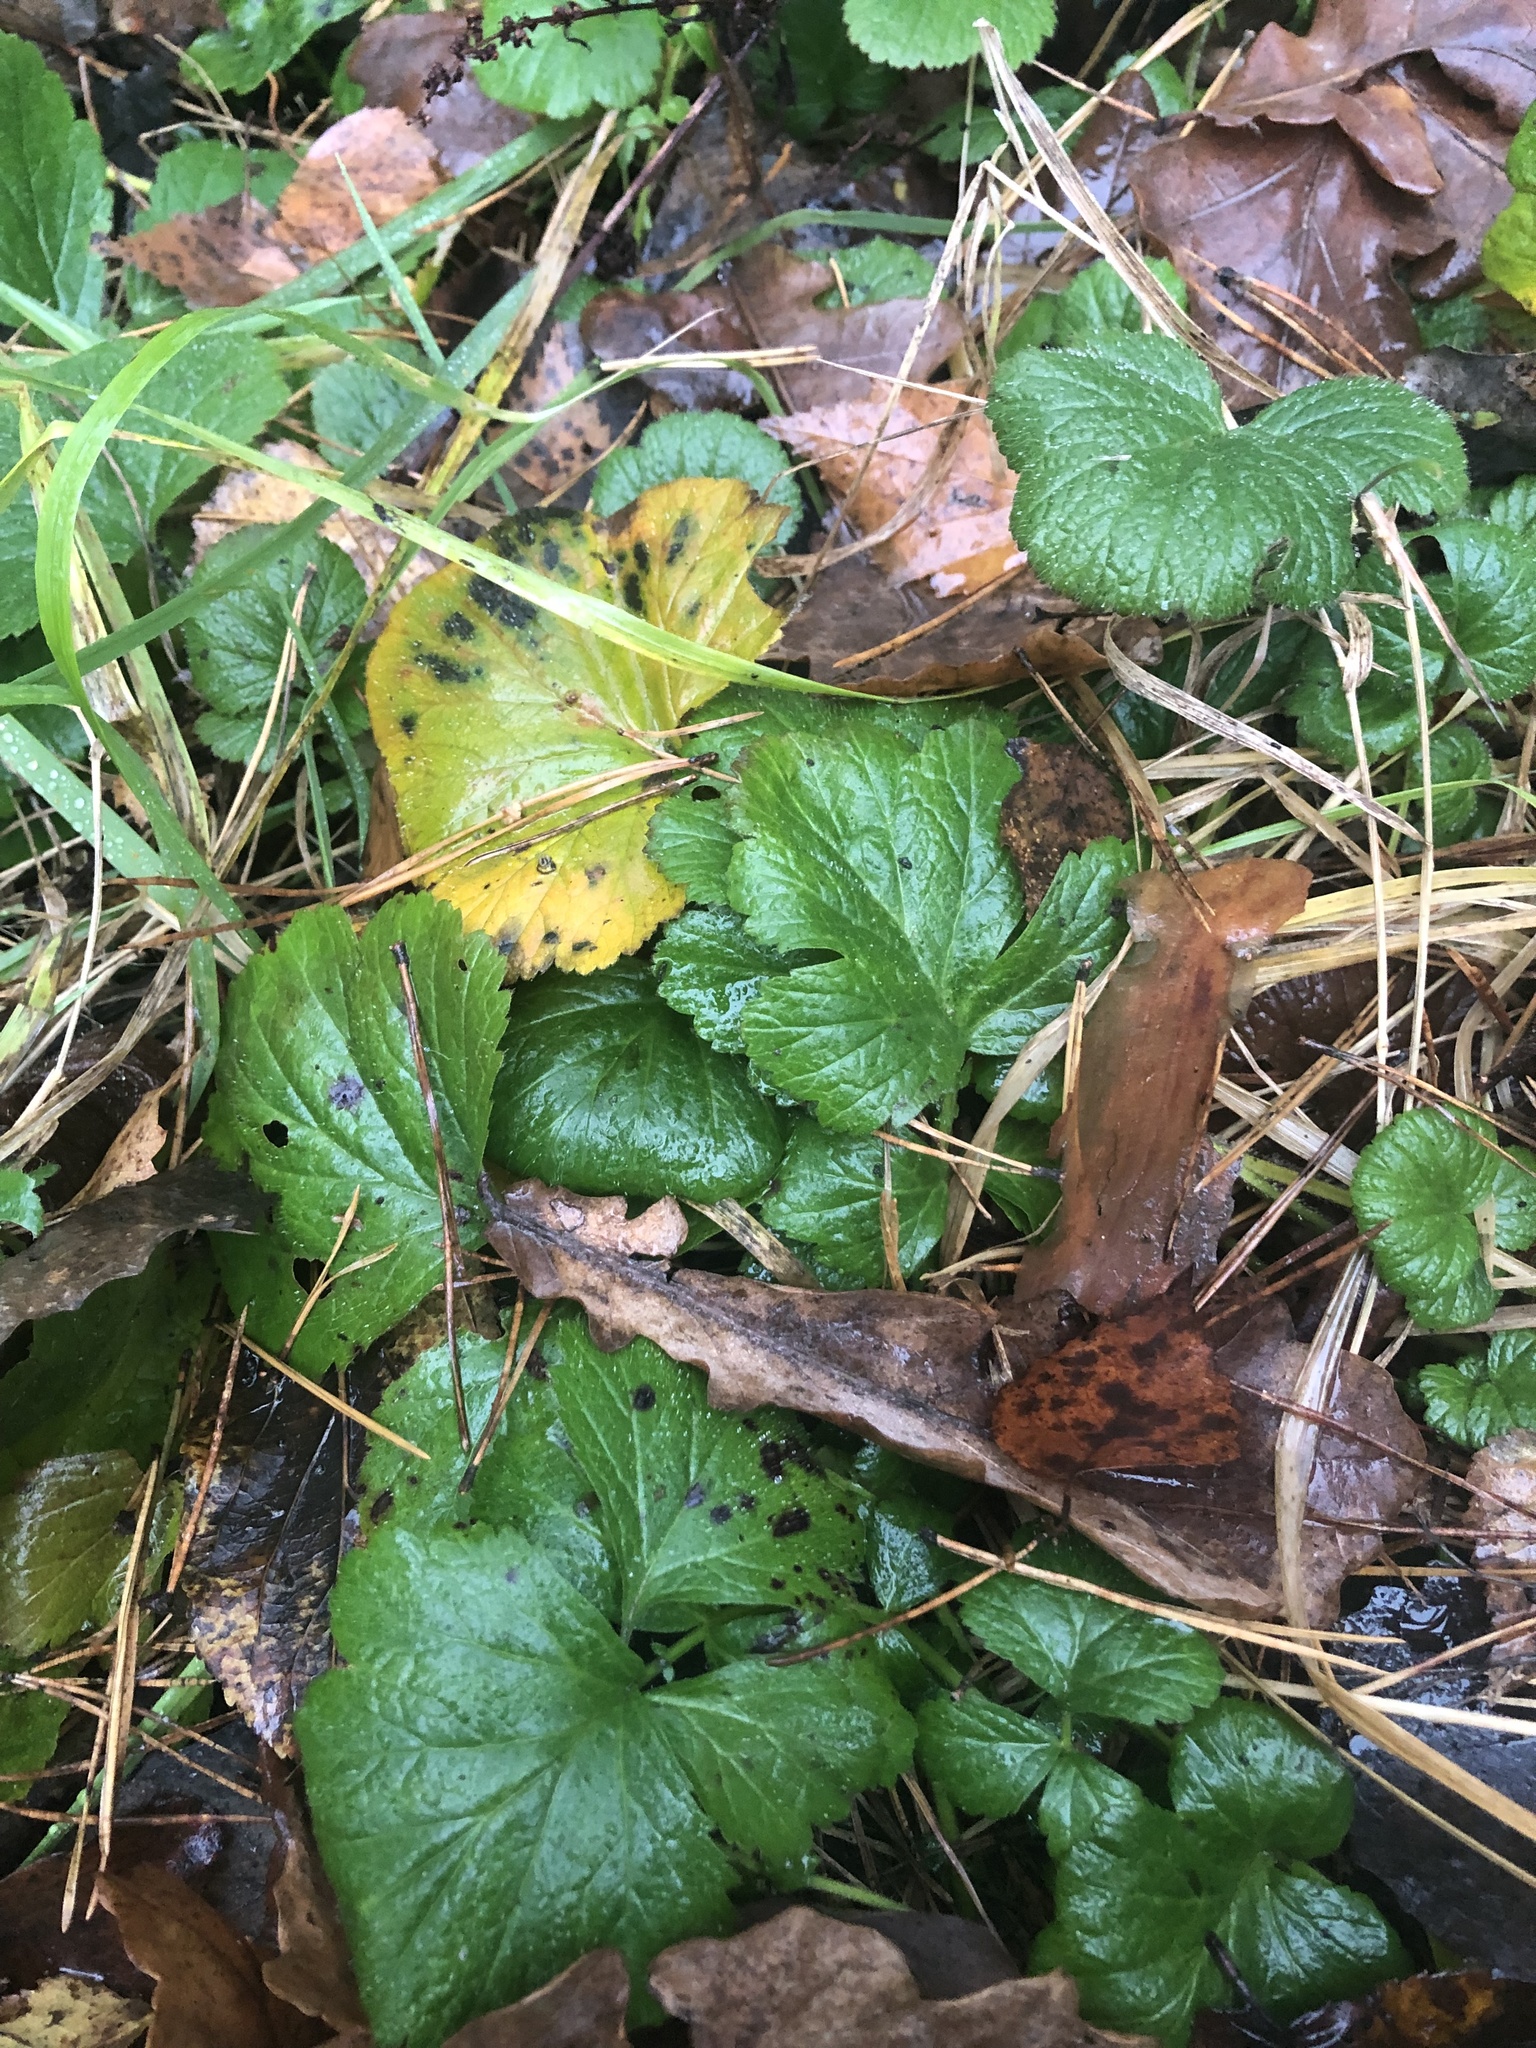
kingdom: Plantae
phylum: Tracheophyta
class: Magnoliopsida
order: Rosales
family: Rosaceae
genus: Fragaria
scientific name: Fragaria vesca
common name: Wild strawberry
